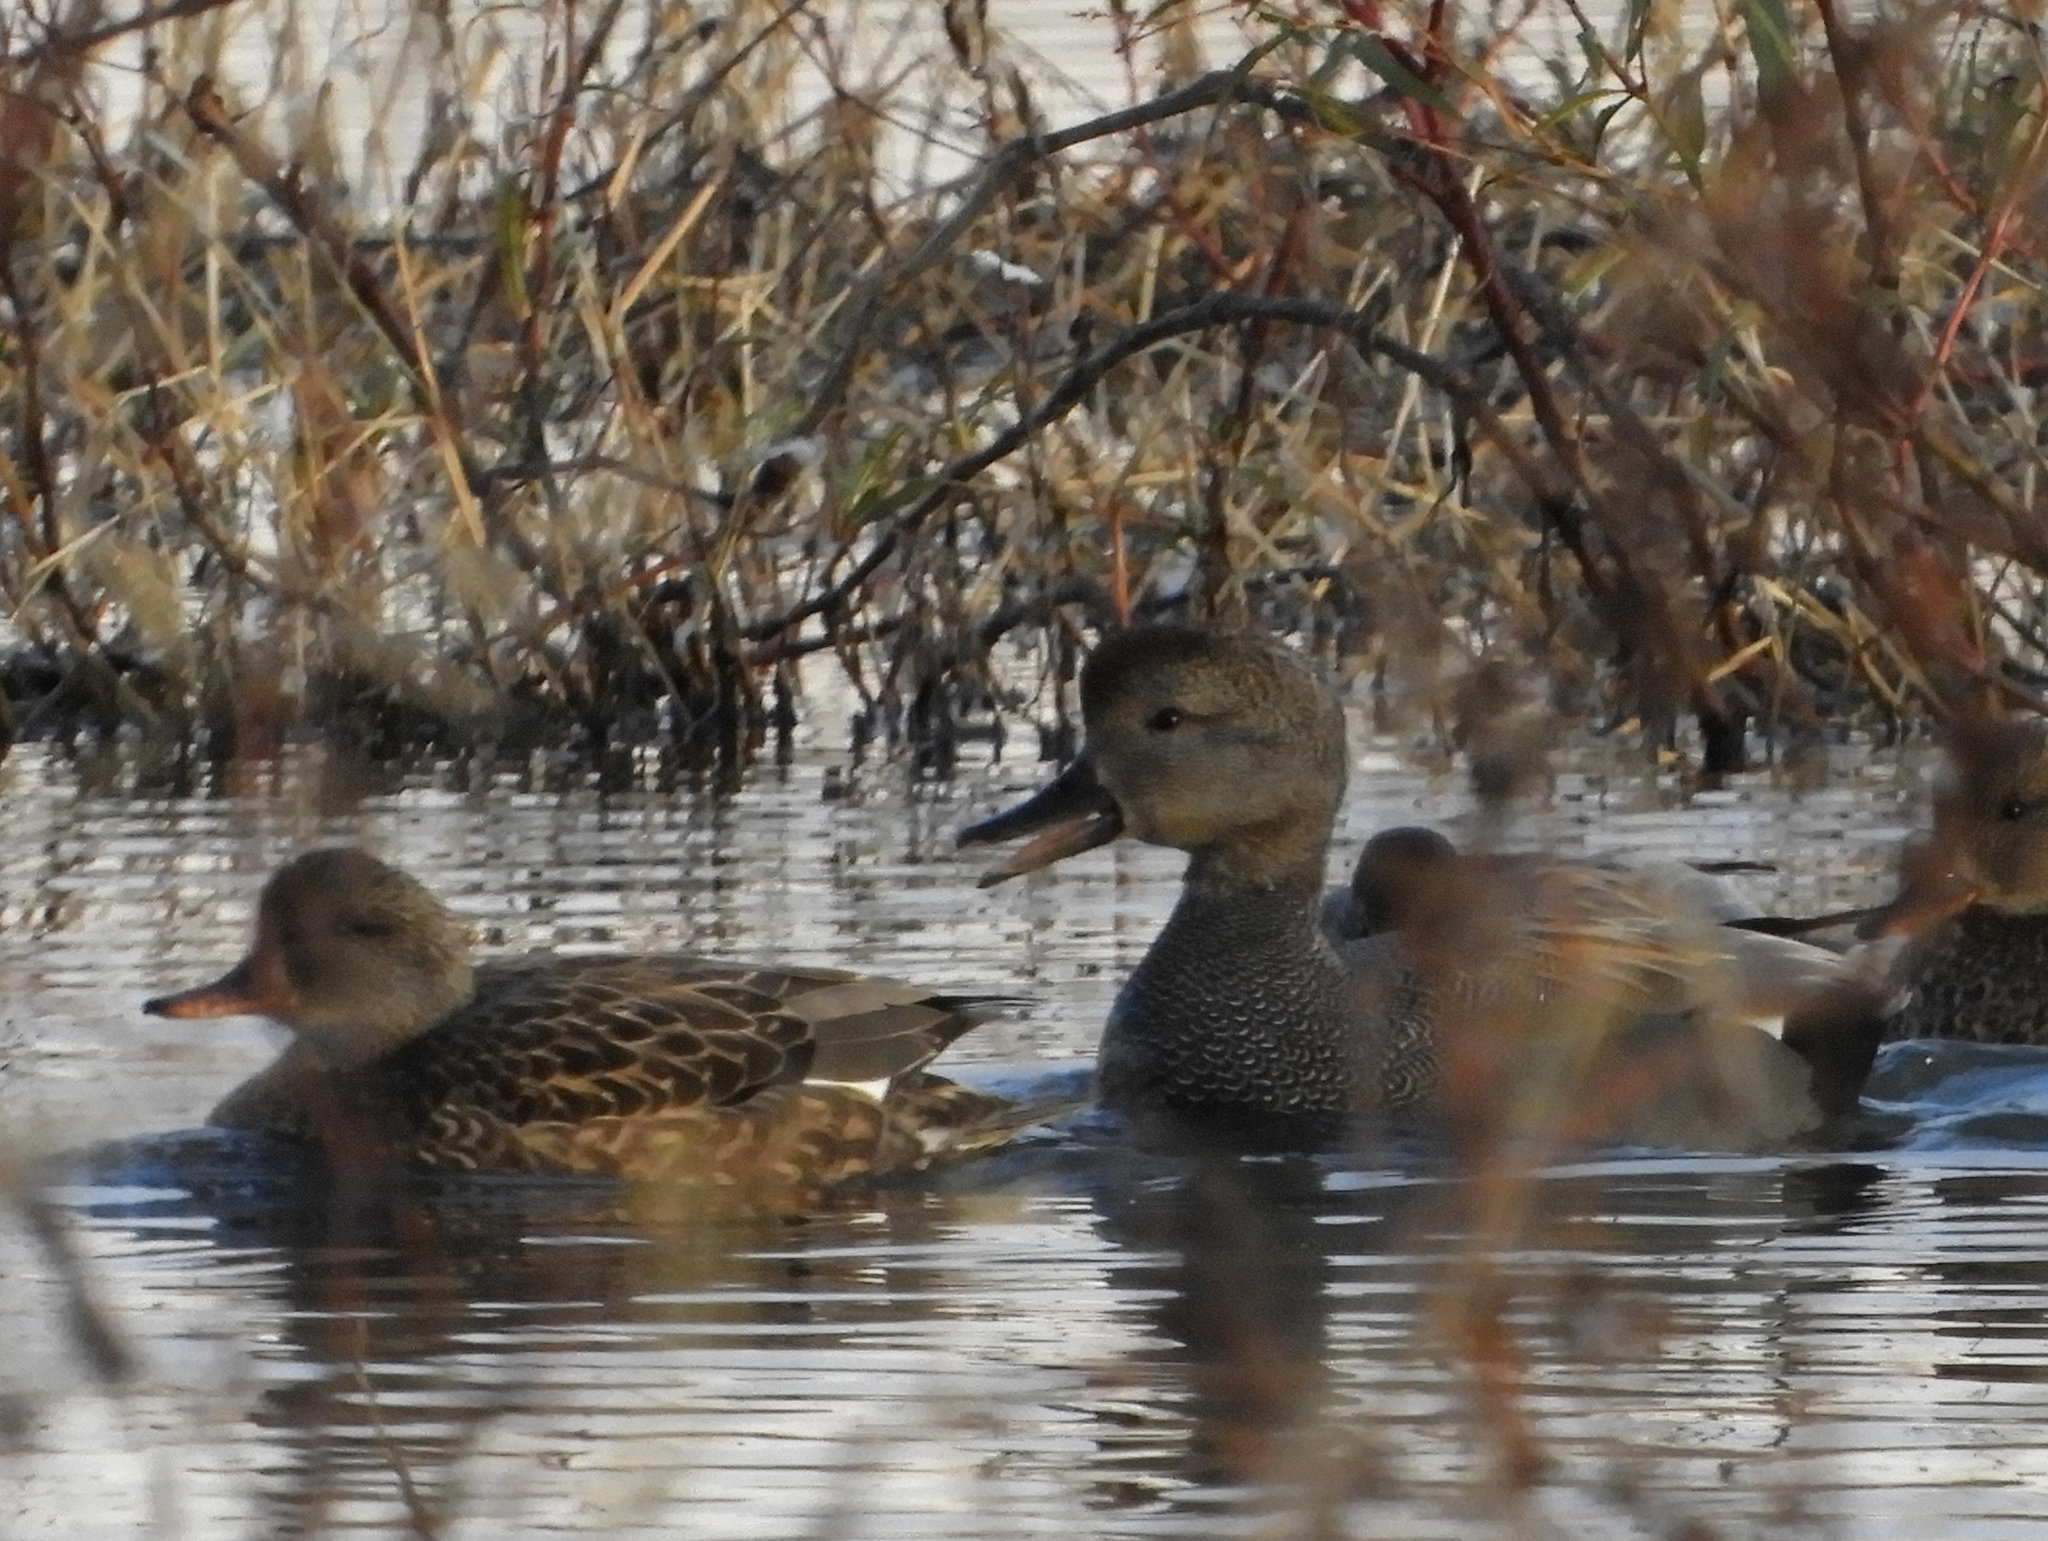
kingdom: Animalia
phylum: Chordata
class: Aves
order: Anseriformes
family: Anatidae
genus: Mareca
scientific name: Mareca strepera
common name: Gadwall
